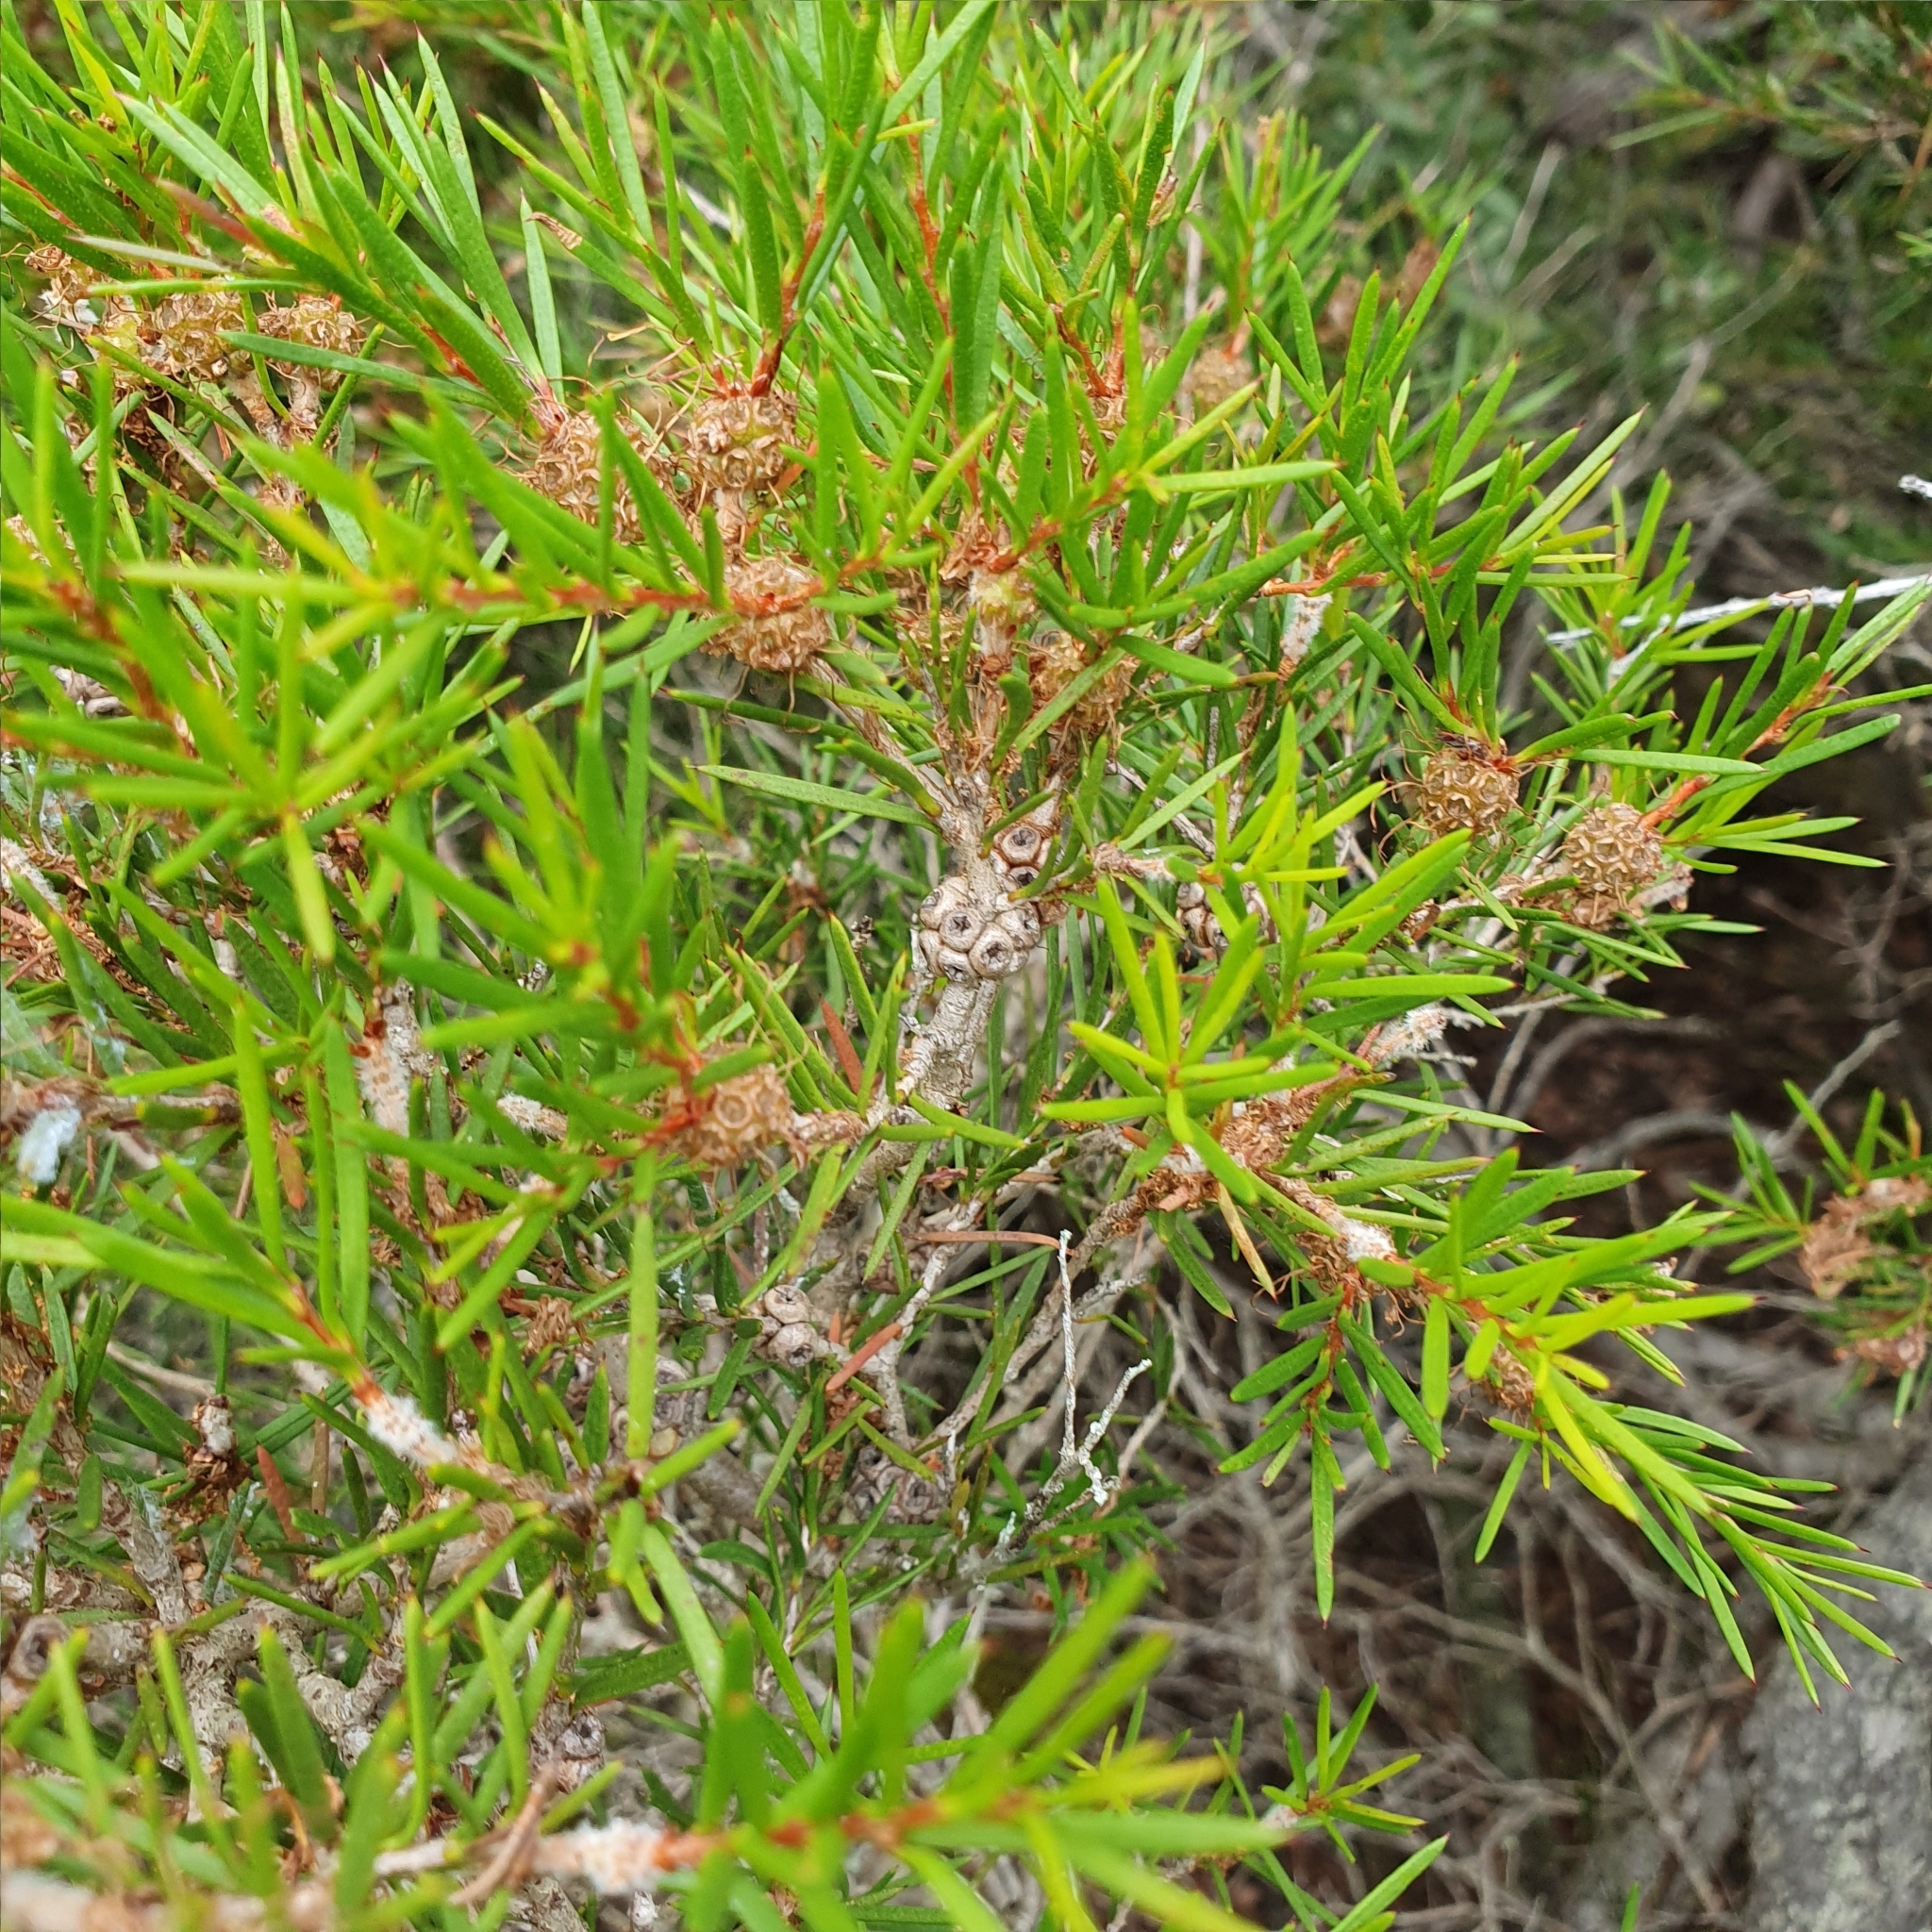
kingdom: Plantae
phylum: Tracheophyta
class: Magnoliopsida
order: Myrtales
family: Myrtaceae
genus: Melaleuca
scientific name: Melaleuca nodosa
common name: Prickly-leaf paperbark
